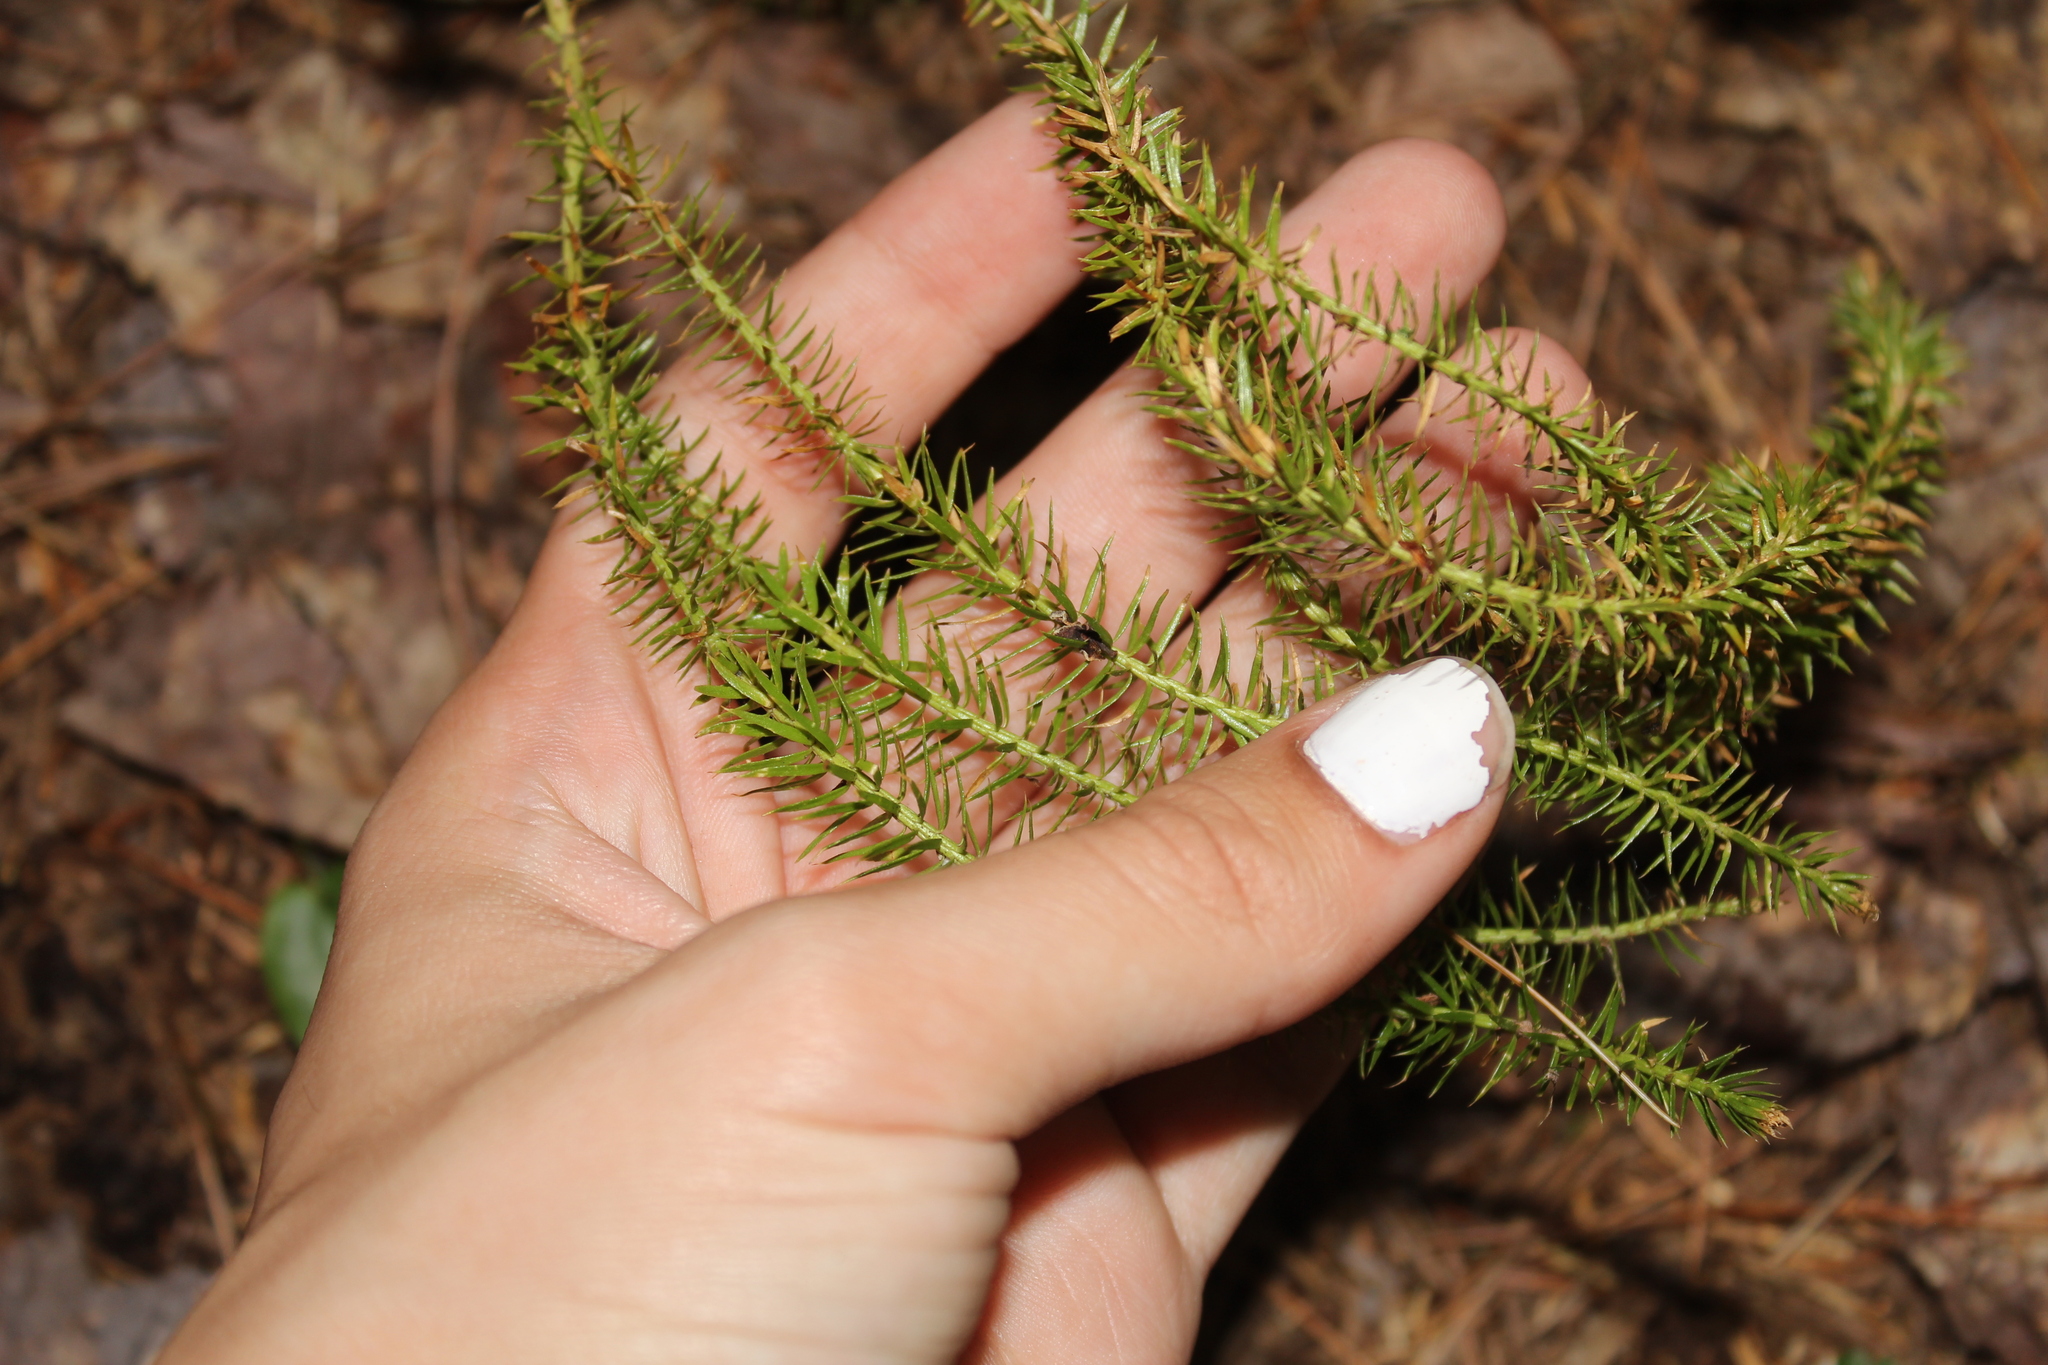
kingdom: Plantae
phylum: Tracheophyta
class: Lycopodiopsida
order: Lycopodiales
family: Lycopodiaceae
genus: Spinulum
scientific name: Spinulum annotinum
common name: Interrupted club-moss
